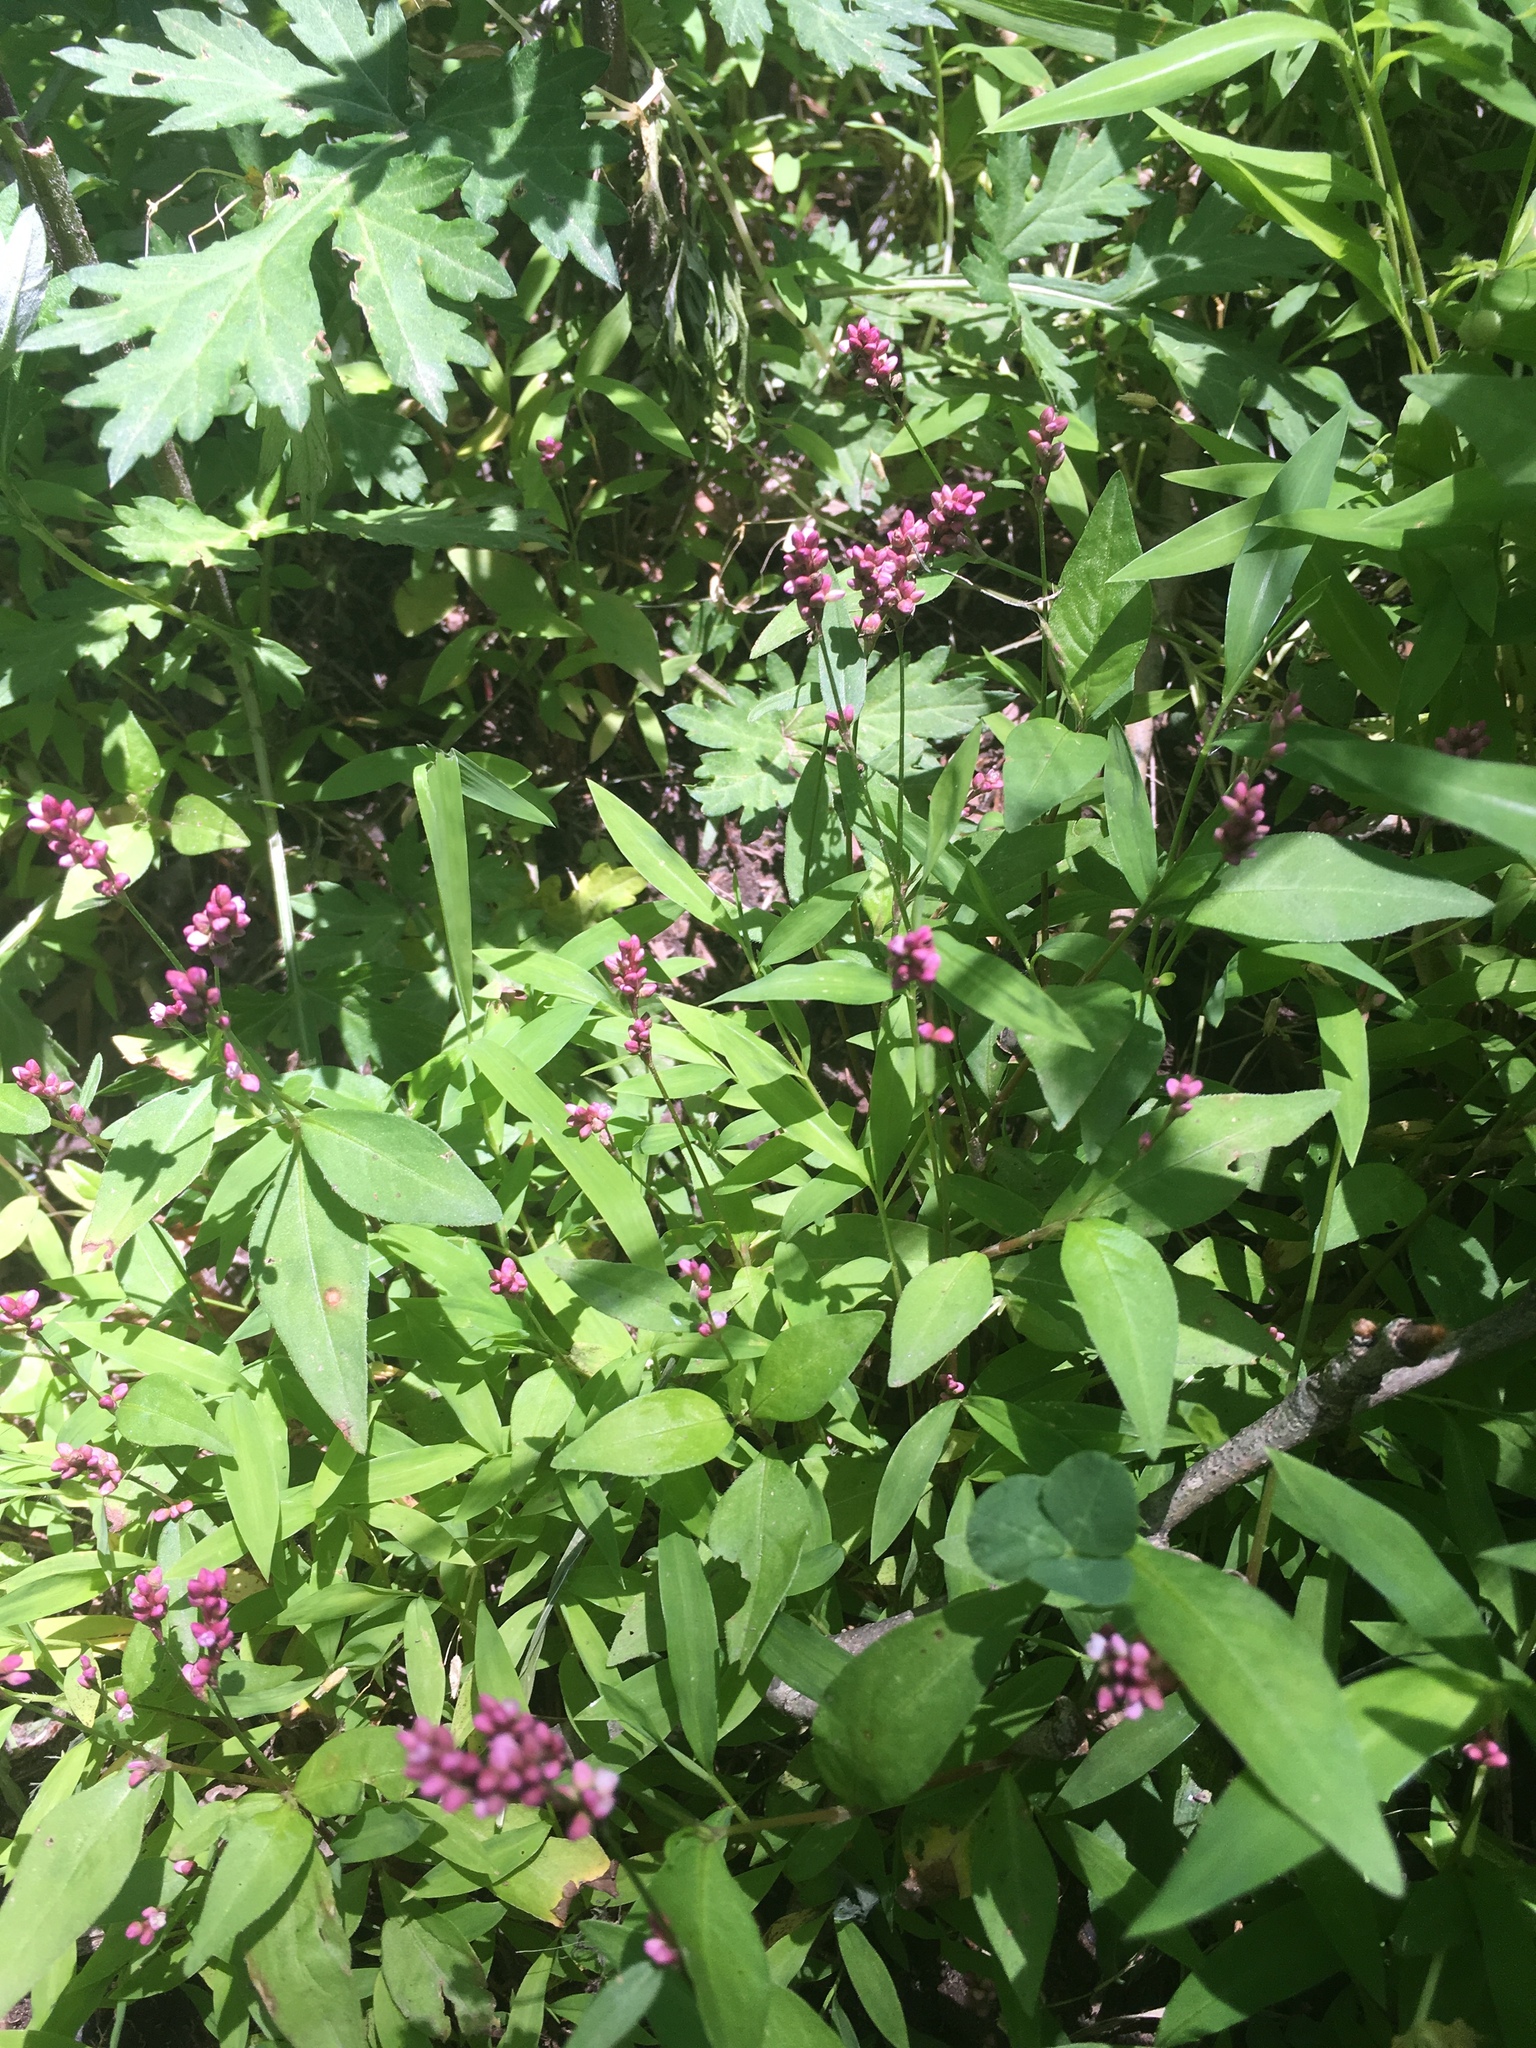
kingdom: Plantae
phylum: Tracheophyta
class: Magnoliopsida
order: Caryophyllales
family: Polygonaceae
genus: Persicaria
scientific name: Persicaria longiseta
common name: Bristly lady's-thumb
